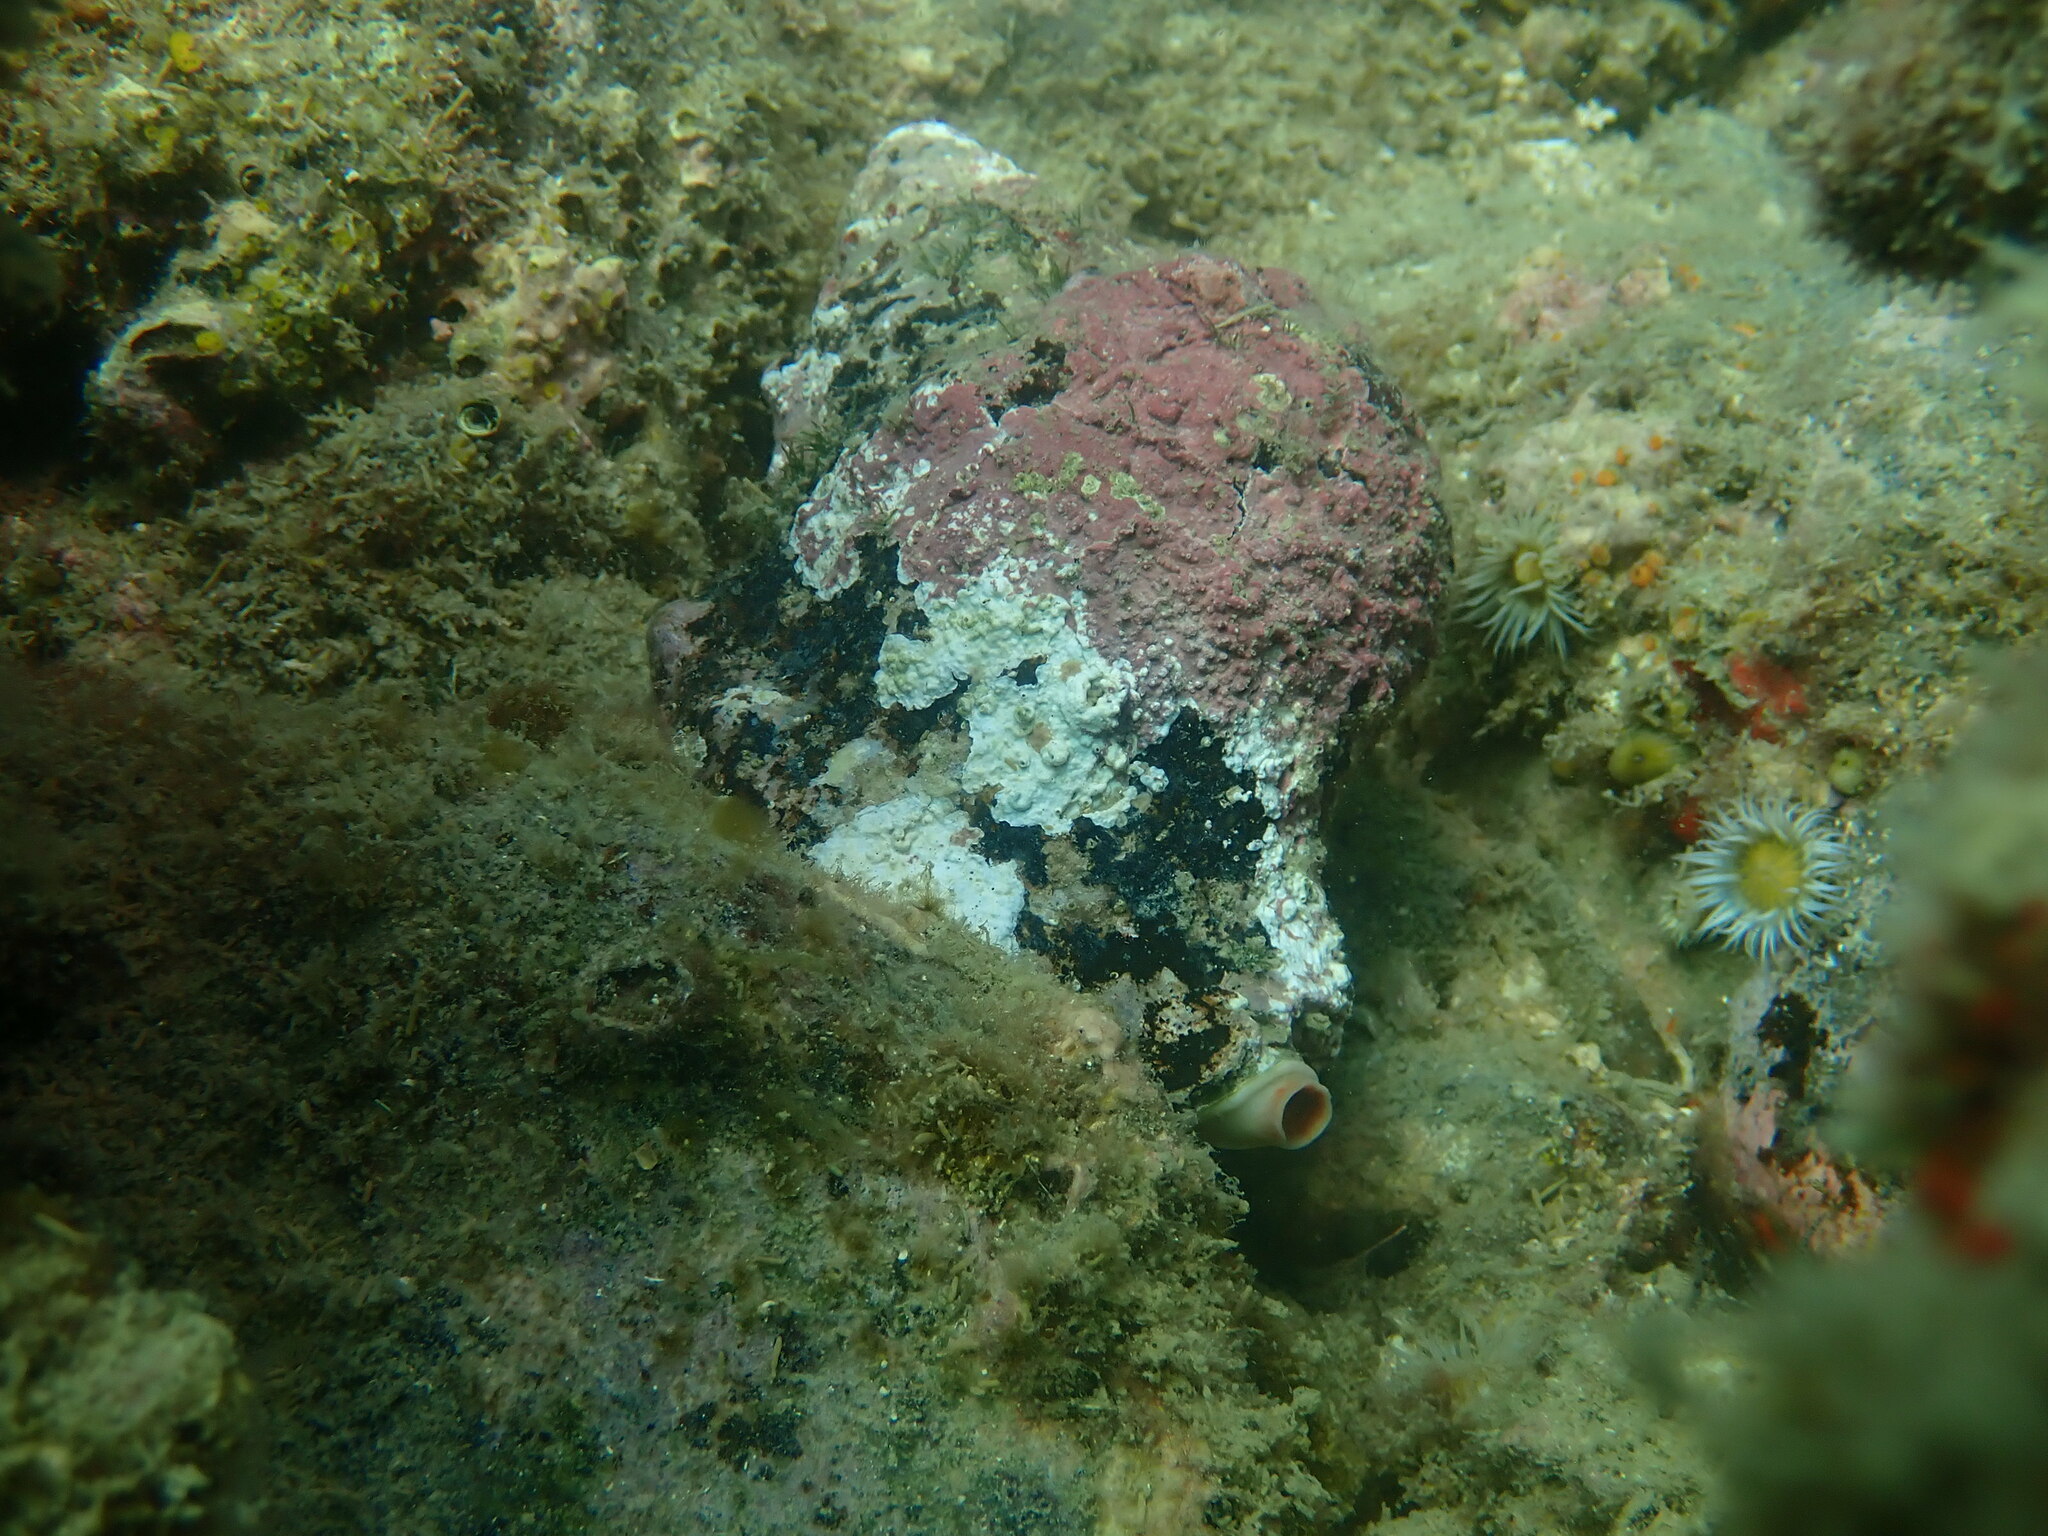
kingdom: Animalia
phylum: Mollusca
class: Gastropoda
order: Littorinimorpha
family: Charoniidae
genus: Charonia
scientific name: Charonia lampas
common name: Knobbed triton
